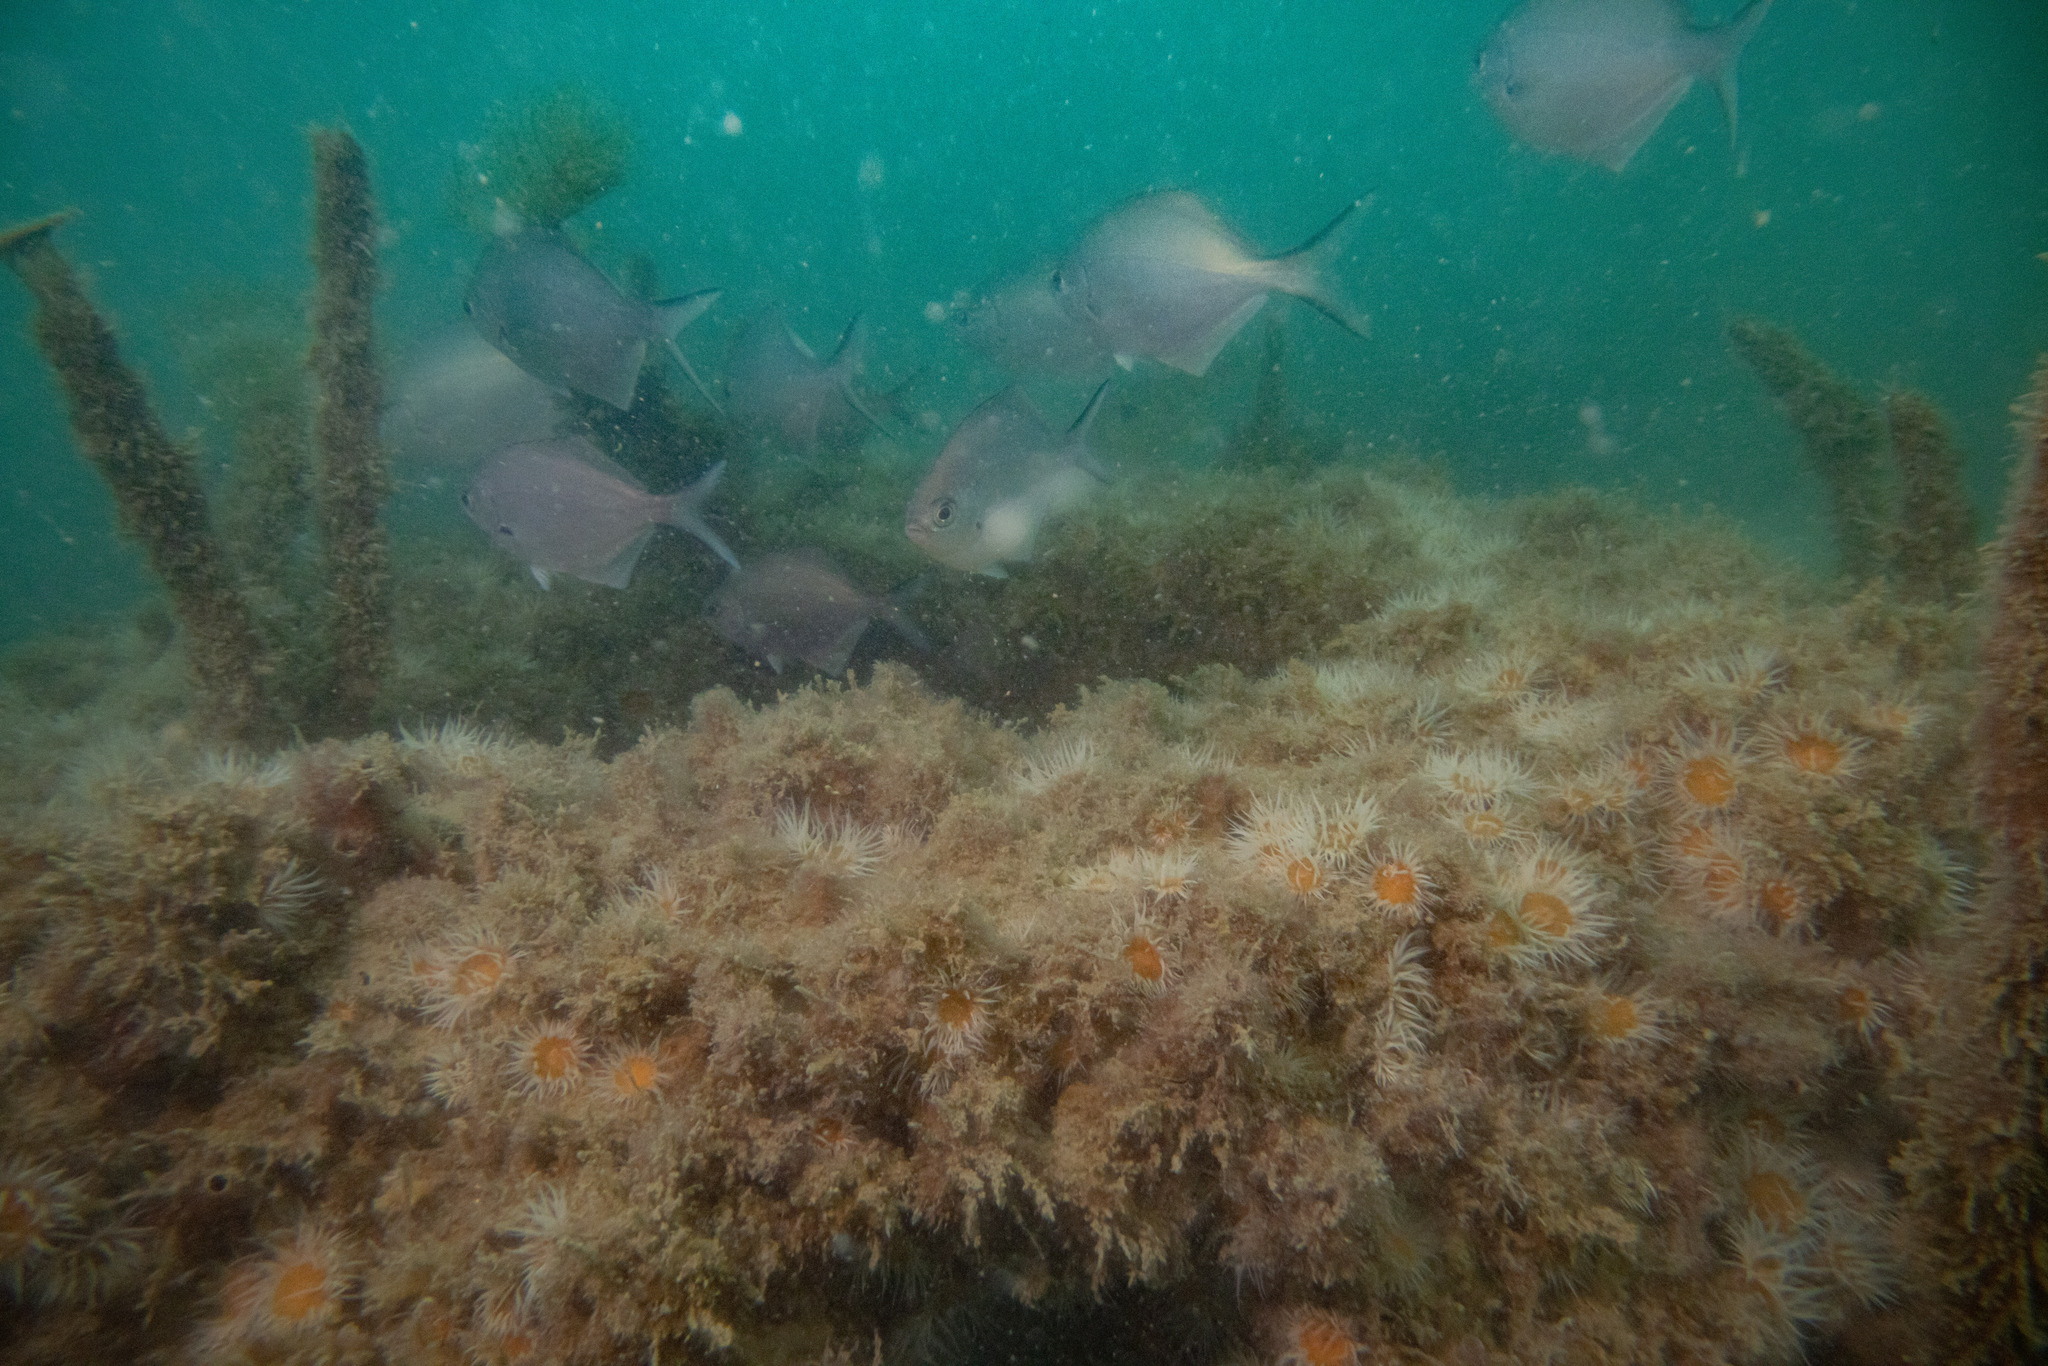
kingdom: Animalia
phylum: Cnidaria
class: Anthozoa
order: Actiniaria
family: Sagartiidae
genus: Anthothoe
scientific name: Anthothoe albocincta
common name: Orange striped anemone
